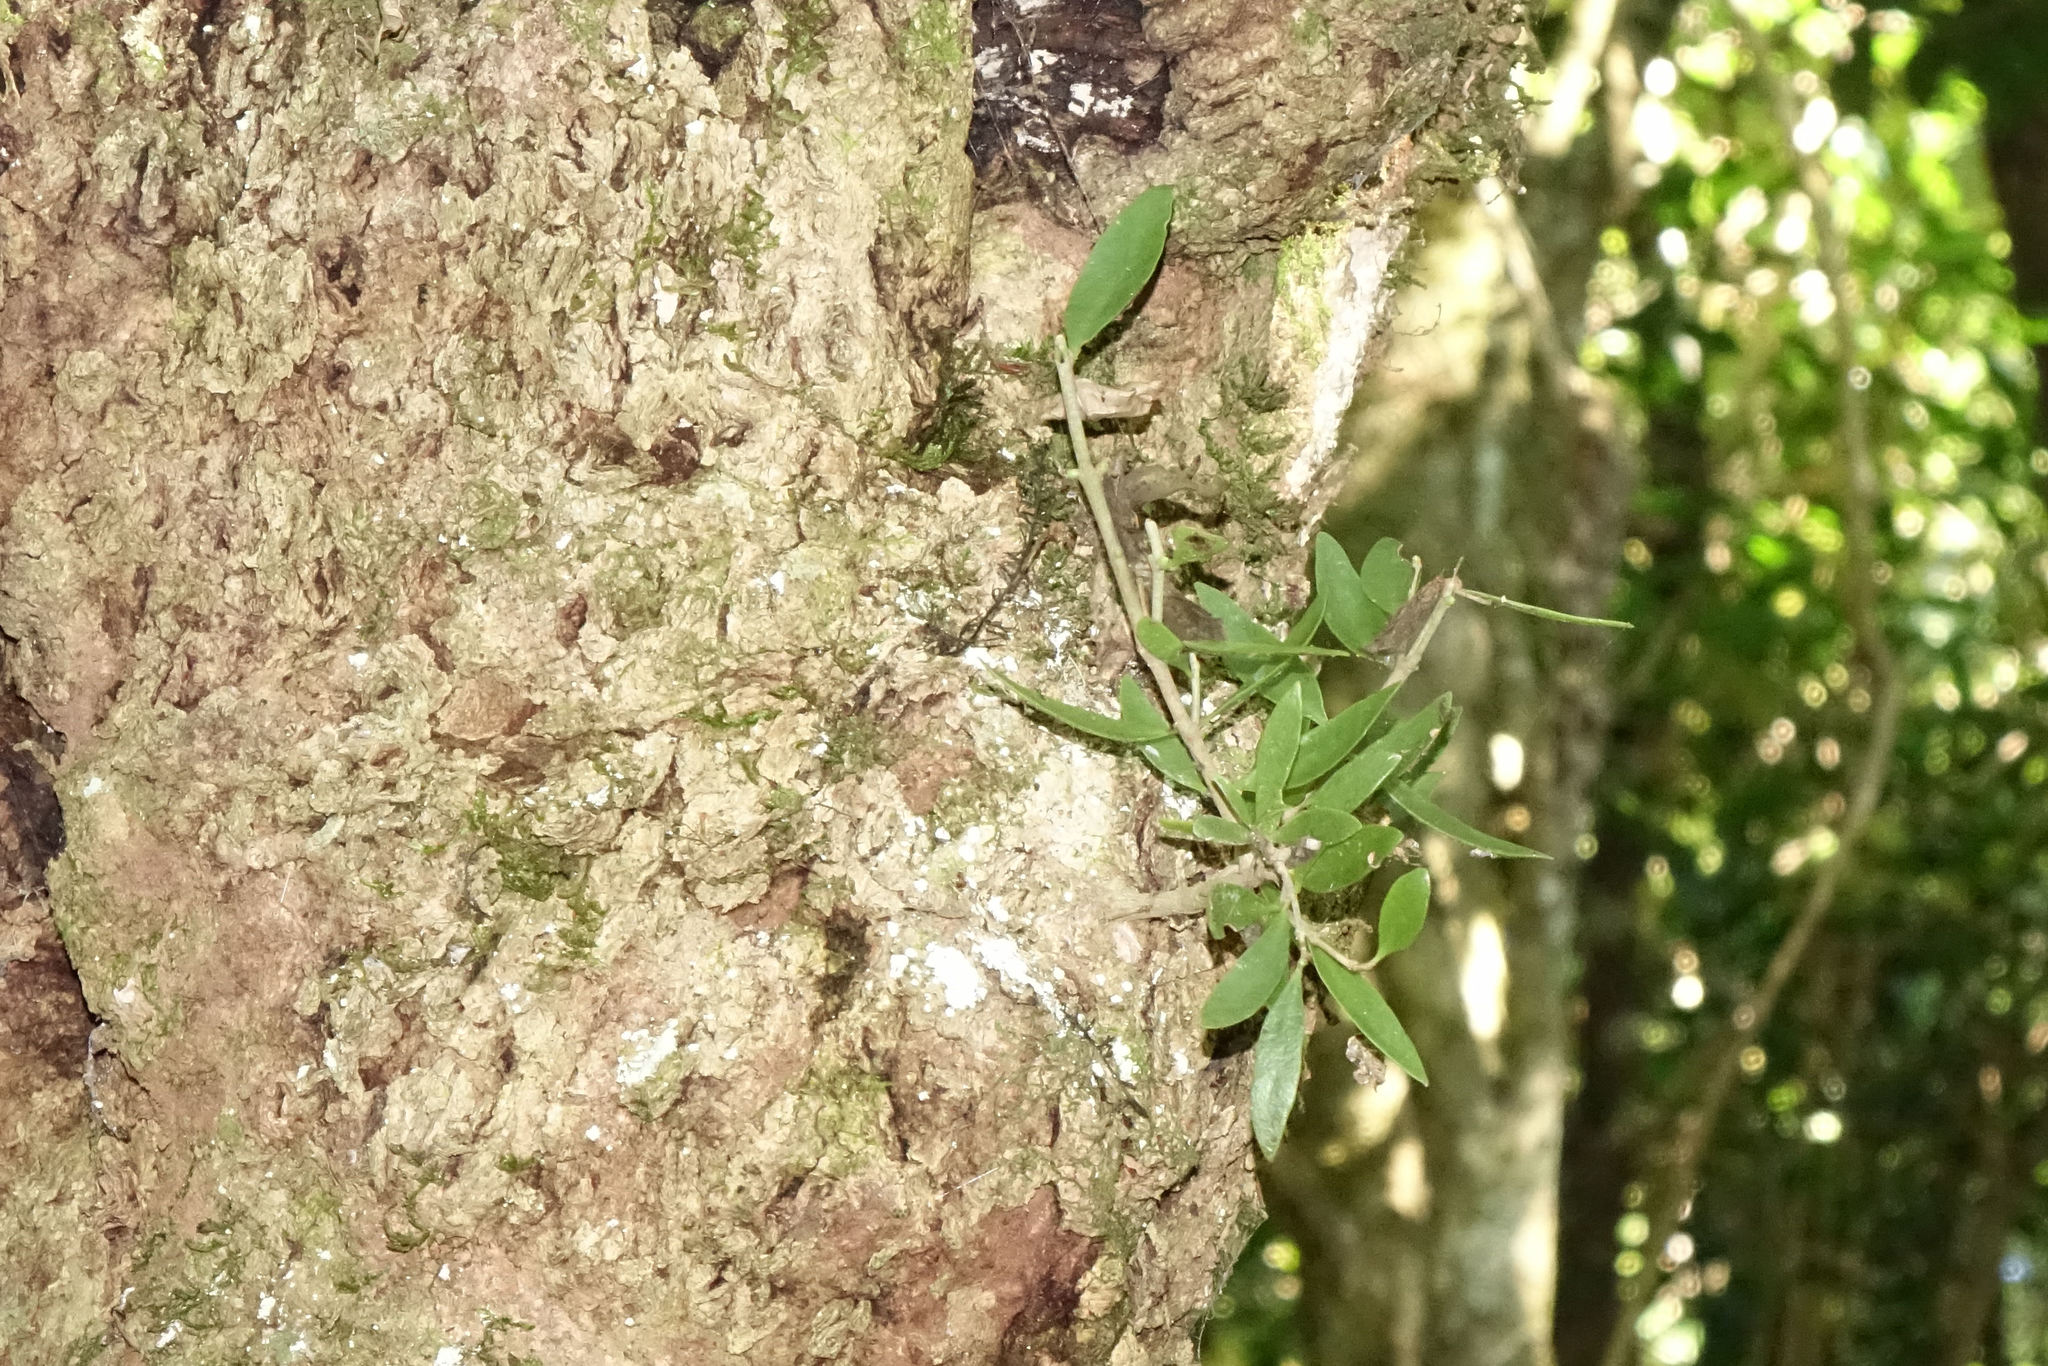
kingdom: Plantae
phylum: Tracheophyta
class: Magnoliopsida
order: Santalales
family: Loranthaceae
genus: Tupeia
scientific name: Tupeia antarctica
